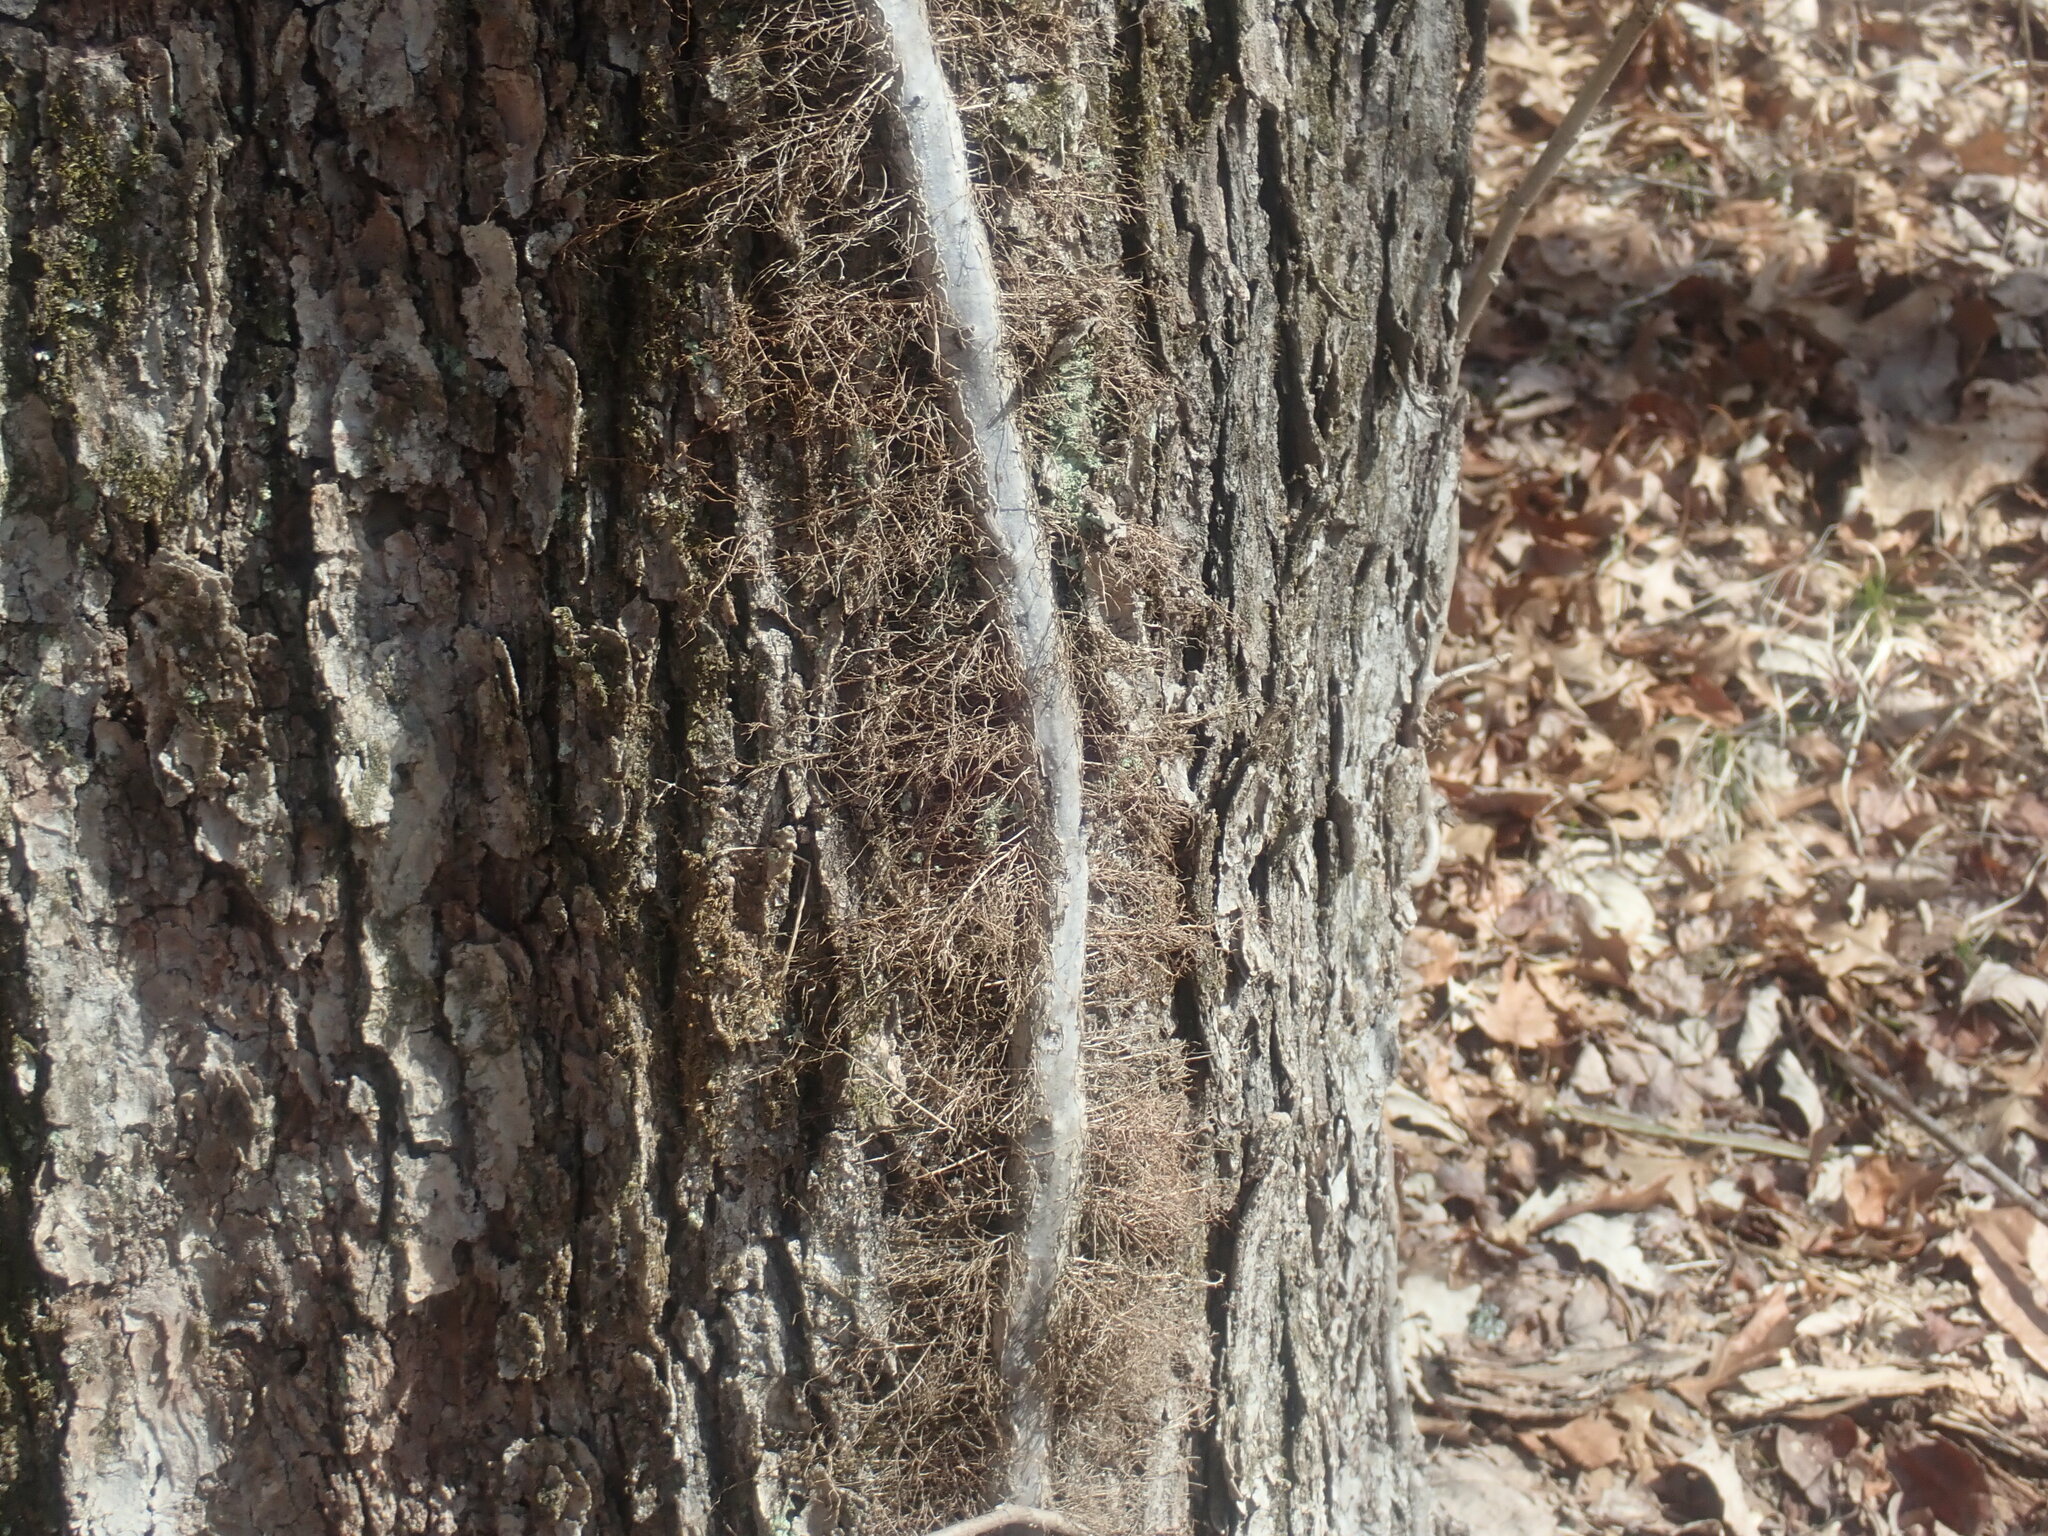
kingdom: Plantae
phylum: Tracheophyta
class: Magnoliopsida
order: Sapindales
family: Anacardiaceae
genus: Toxicodendron
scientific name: Toxicodendron radicans
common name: Poison ivy
